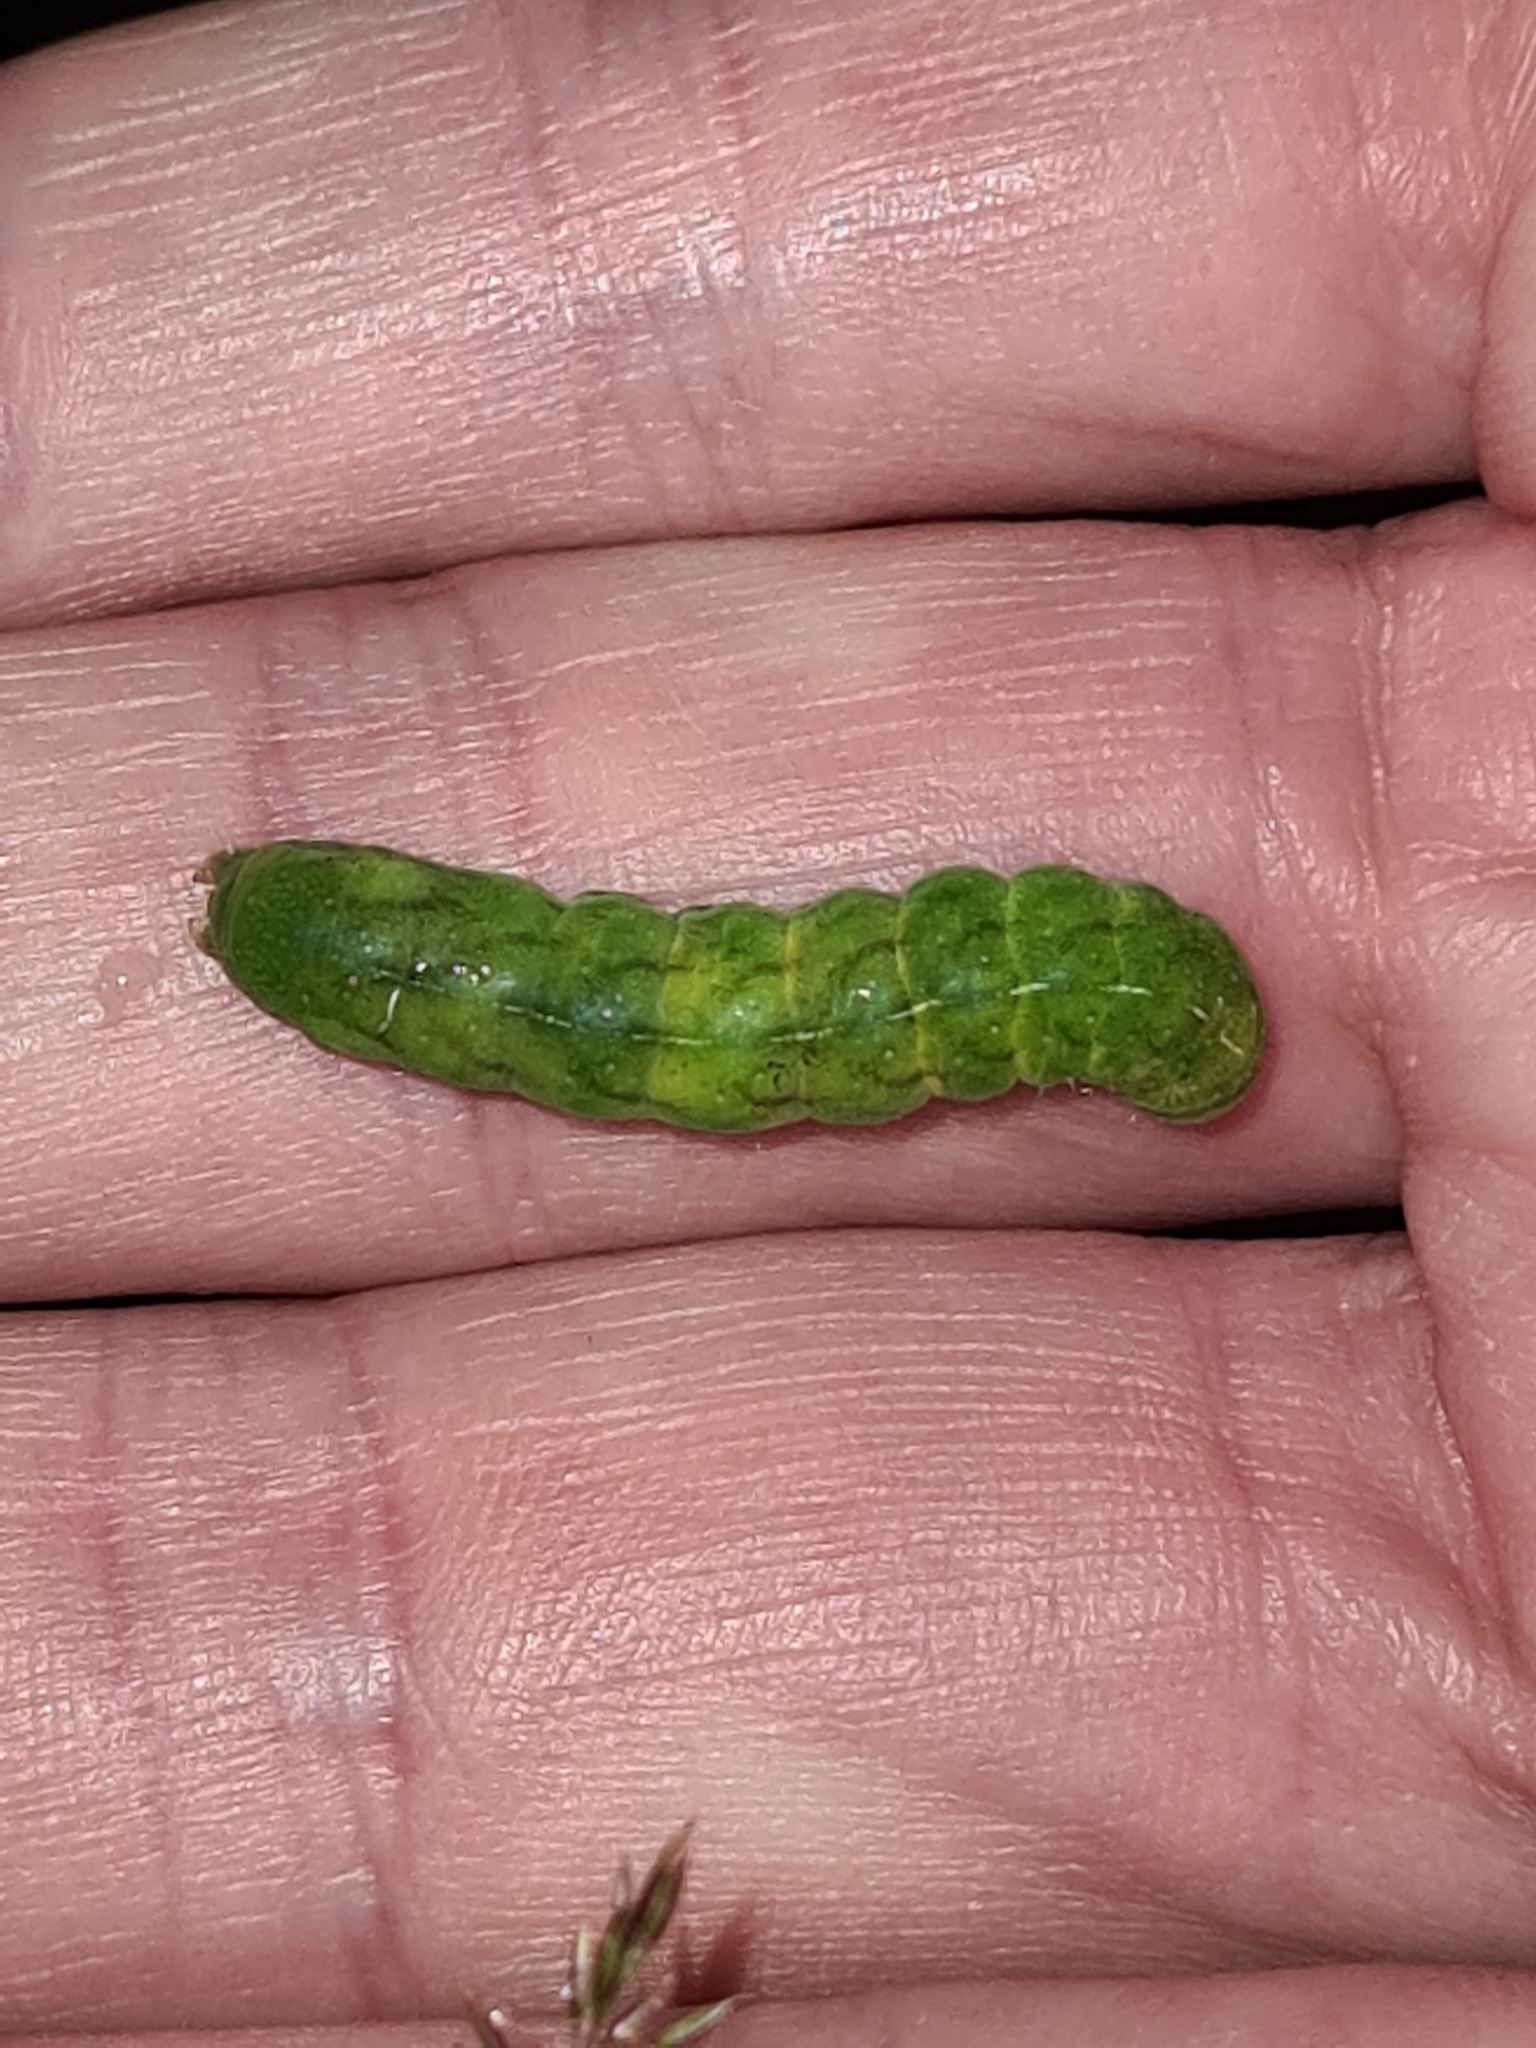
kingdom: Animalia
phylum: Arthropoda
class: Insecta
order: Lepidoptera
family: Noctuidae
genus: Phlogophora
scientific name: Phlogophora meticulosa
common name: Angle shades
